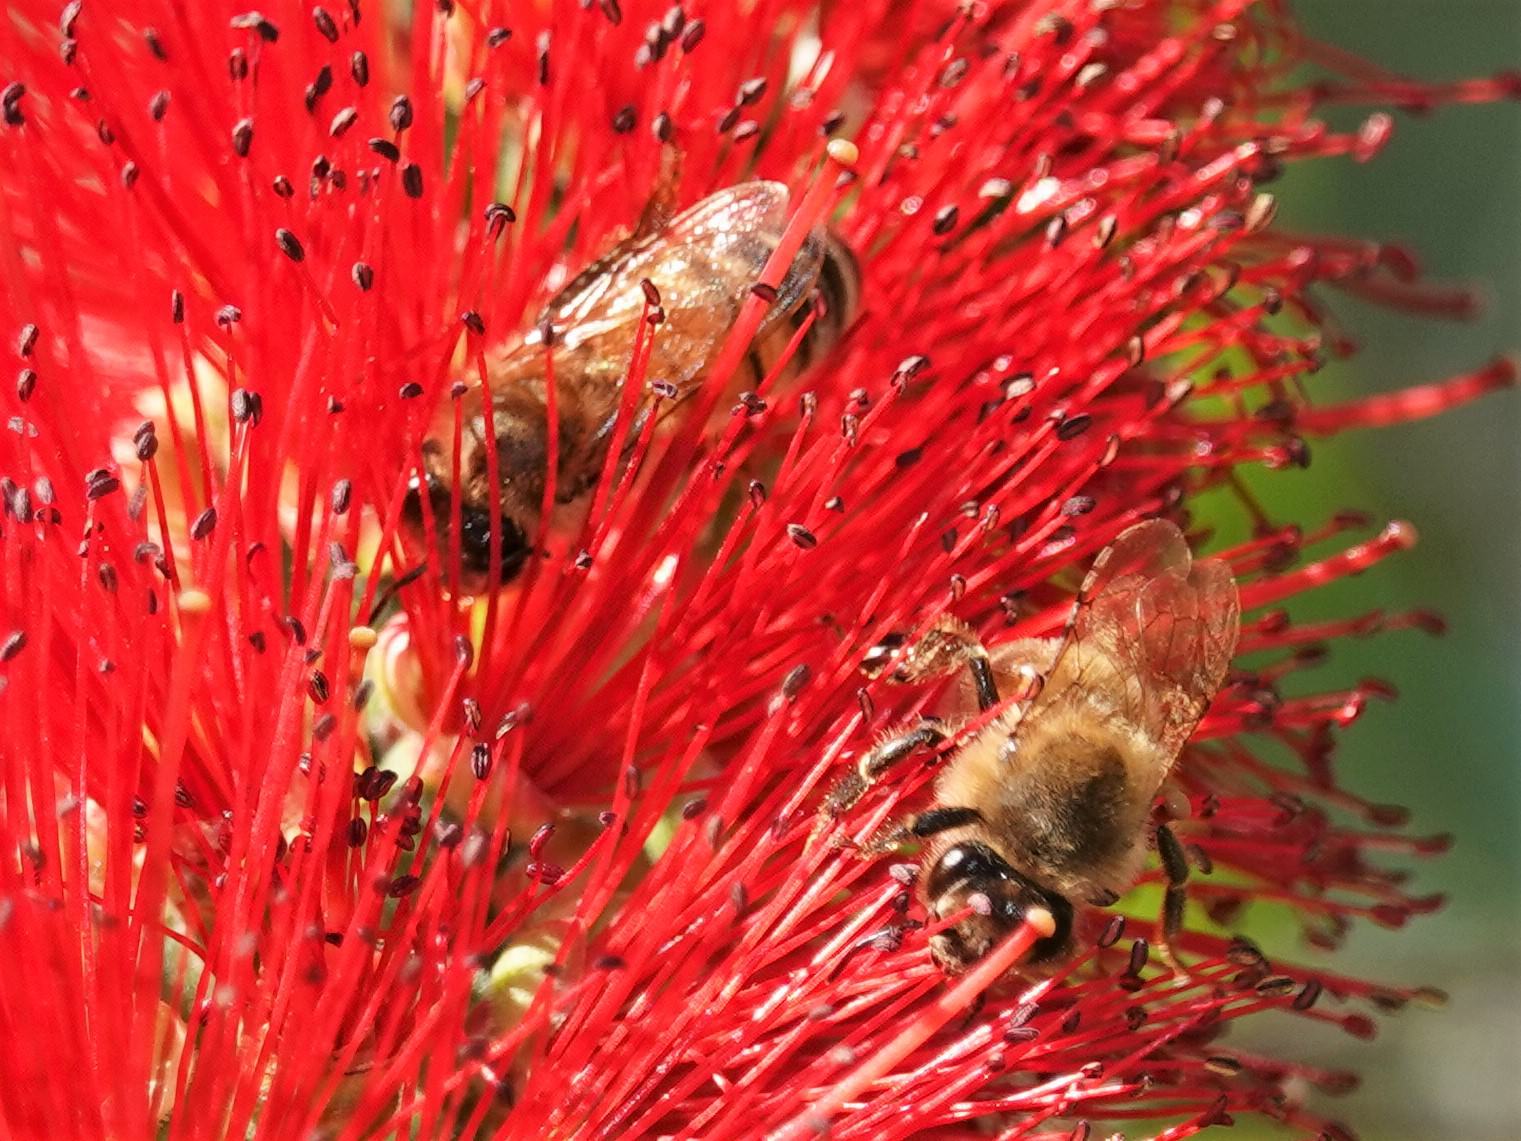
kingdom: Animalia
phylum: Arthropoda
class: Insecta
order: Hymenoptera
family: Apidae
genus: Apis
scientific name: Apis mellifera
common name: Honey bee
